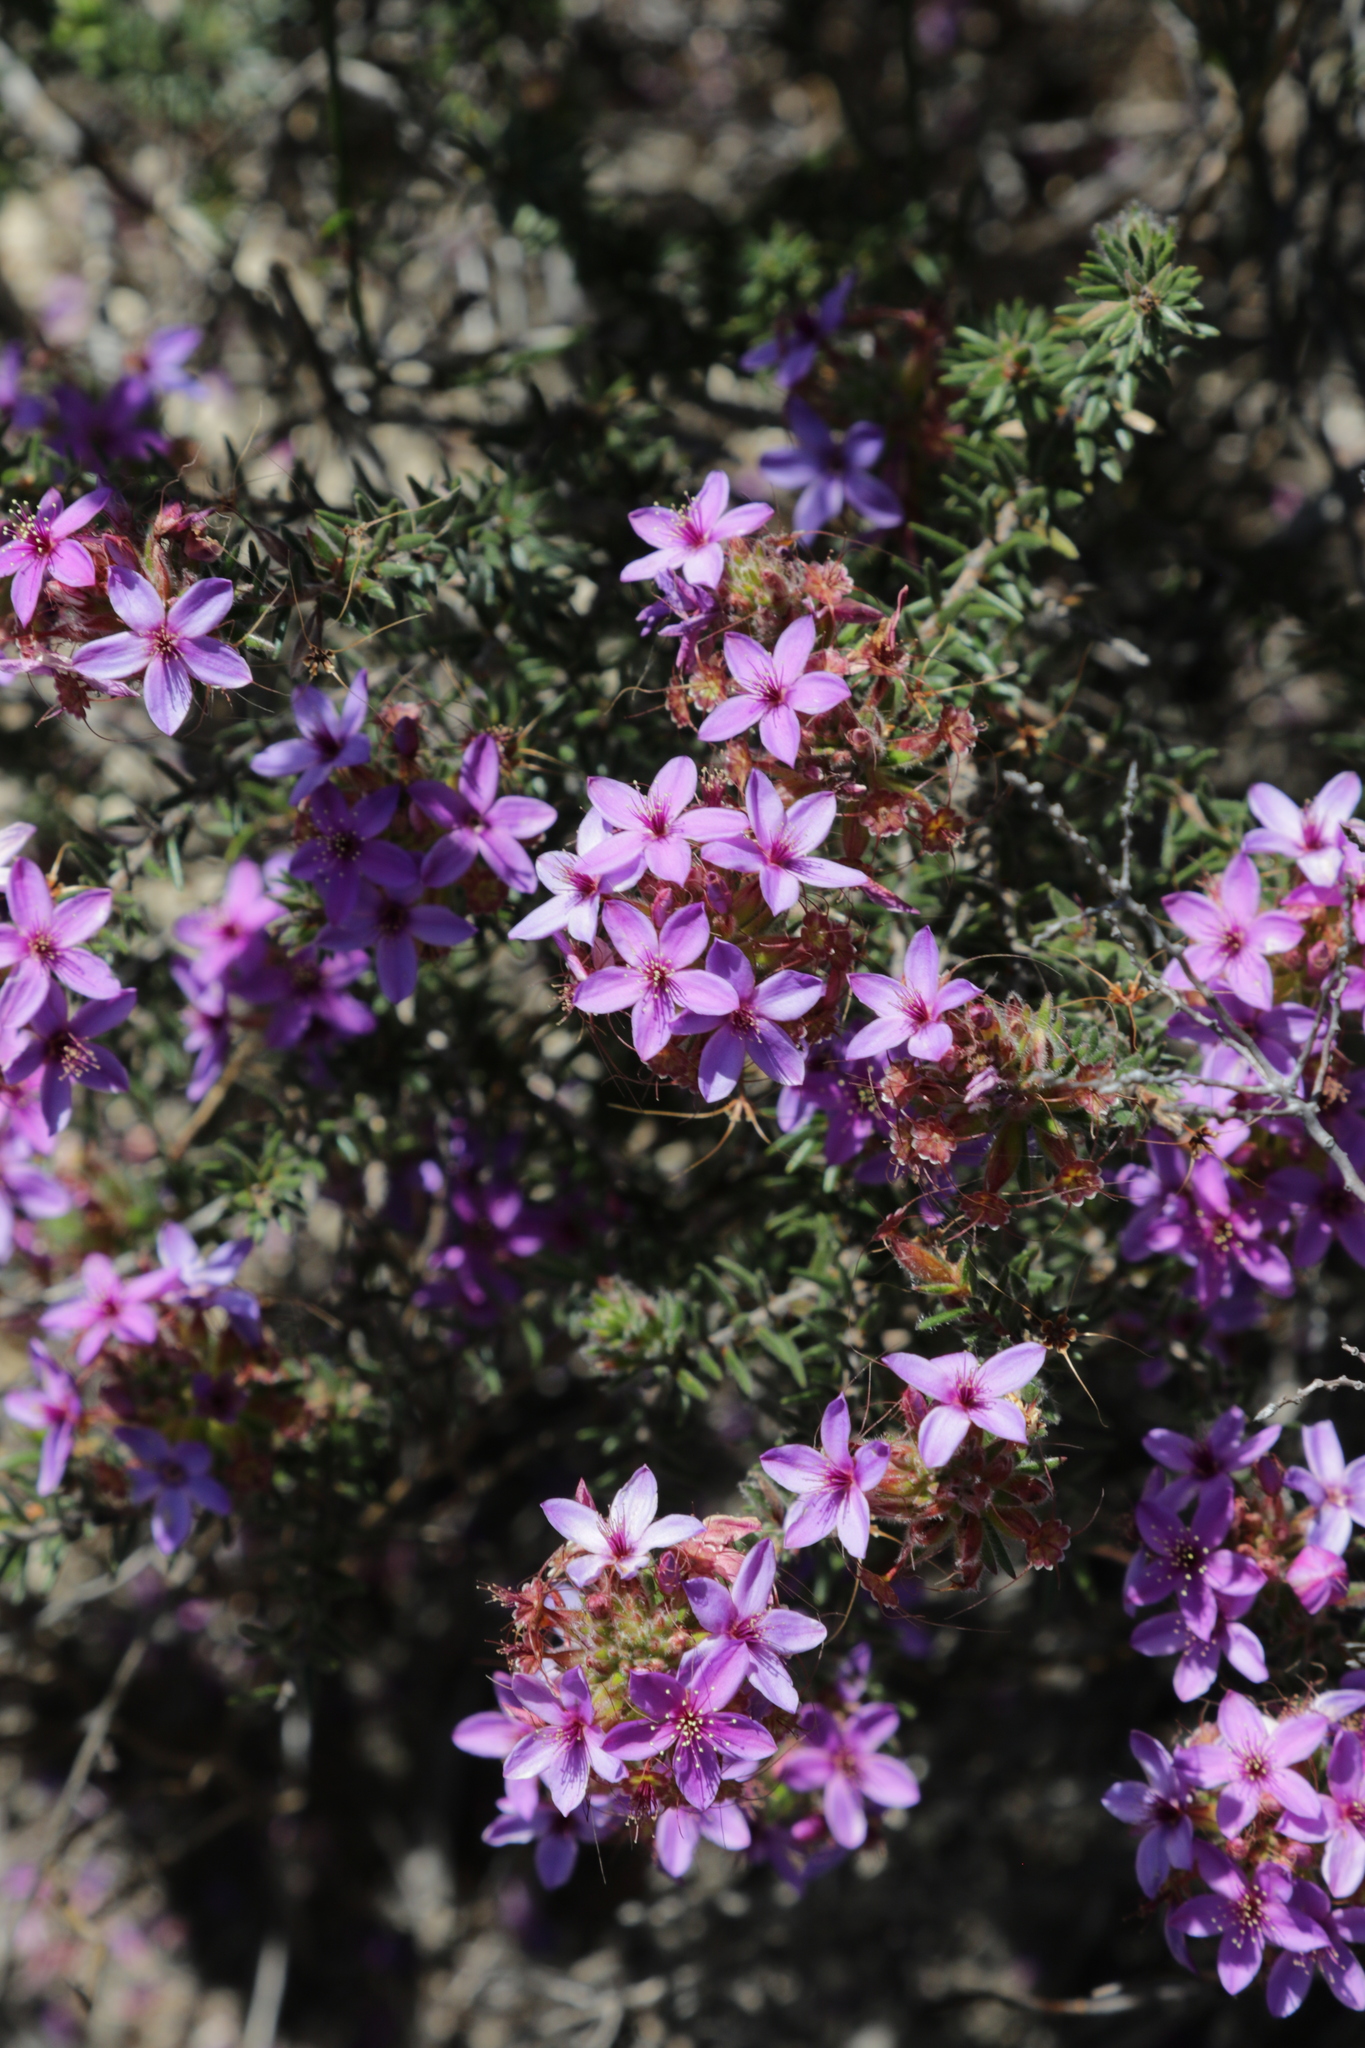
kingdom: Plantae
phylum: Tracheophyta
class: Magnoliopsida
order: Myrtales
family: Myrtaceae
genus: Calytrix
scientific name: Calytrix sapphirina
